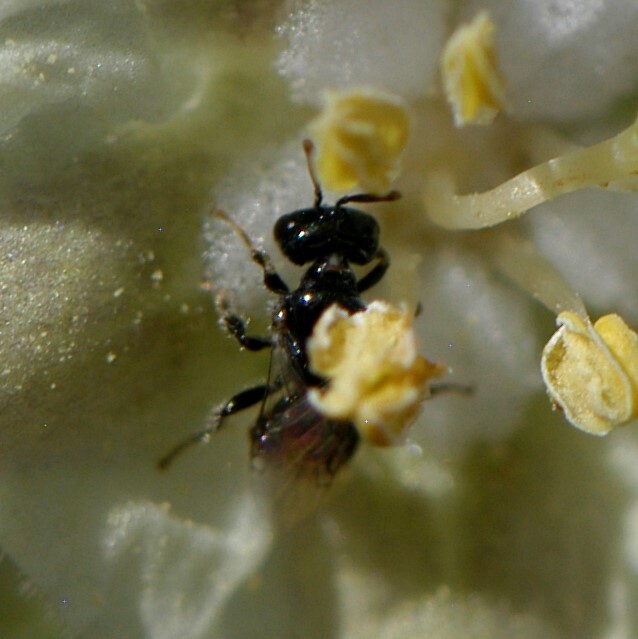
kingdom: Animalia
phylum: Arthropoda
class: Insecta
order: Hymenoptera
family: Andrenidae
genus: Perdita
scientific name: Perdita
